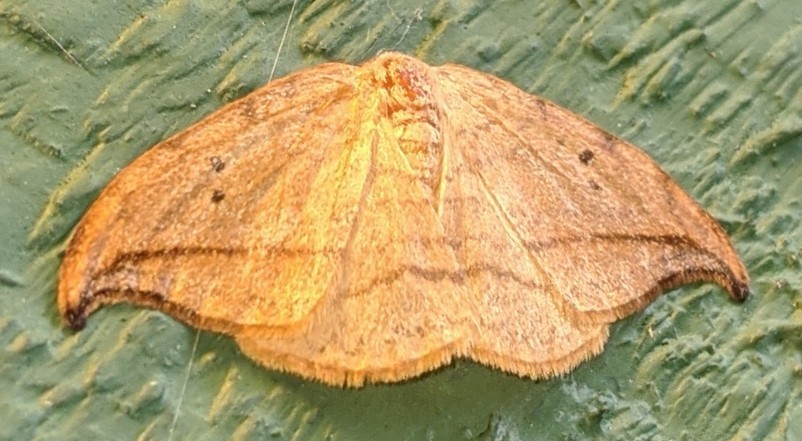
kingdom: Animalia
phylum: Arthropoda
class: Insecta
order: Lepidoptera
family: Drepanidae
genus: Drepana
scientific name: Drepana arcuata
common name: Arched hooktip moth
